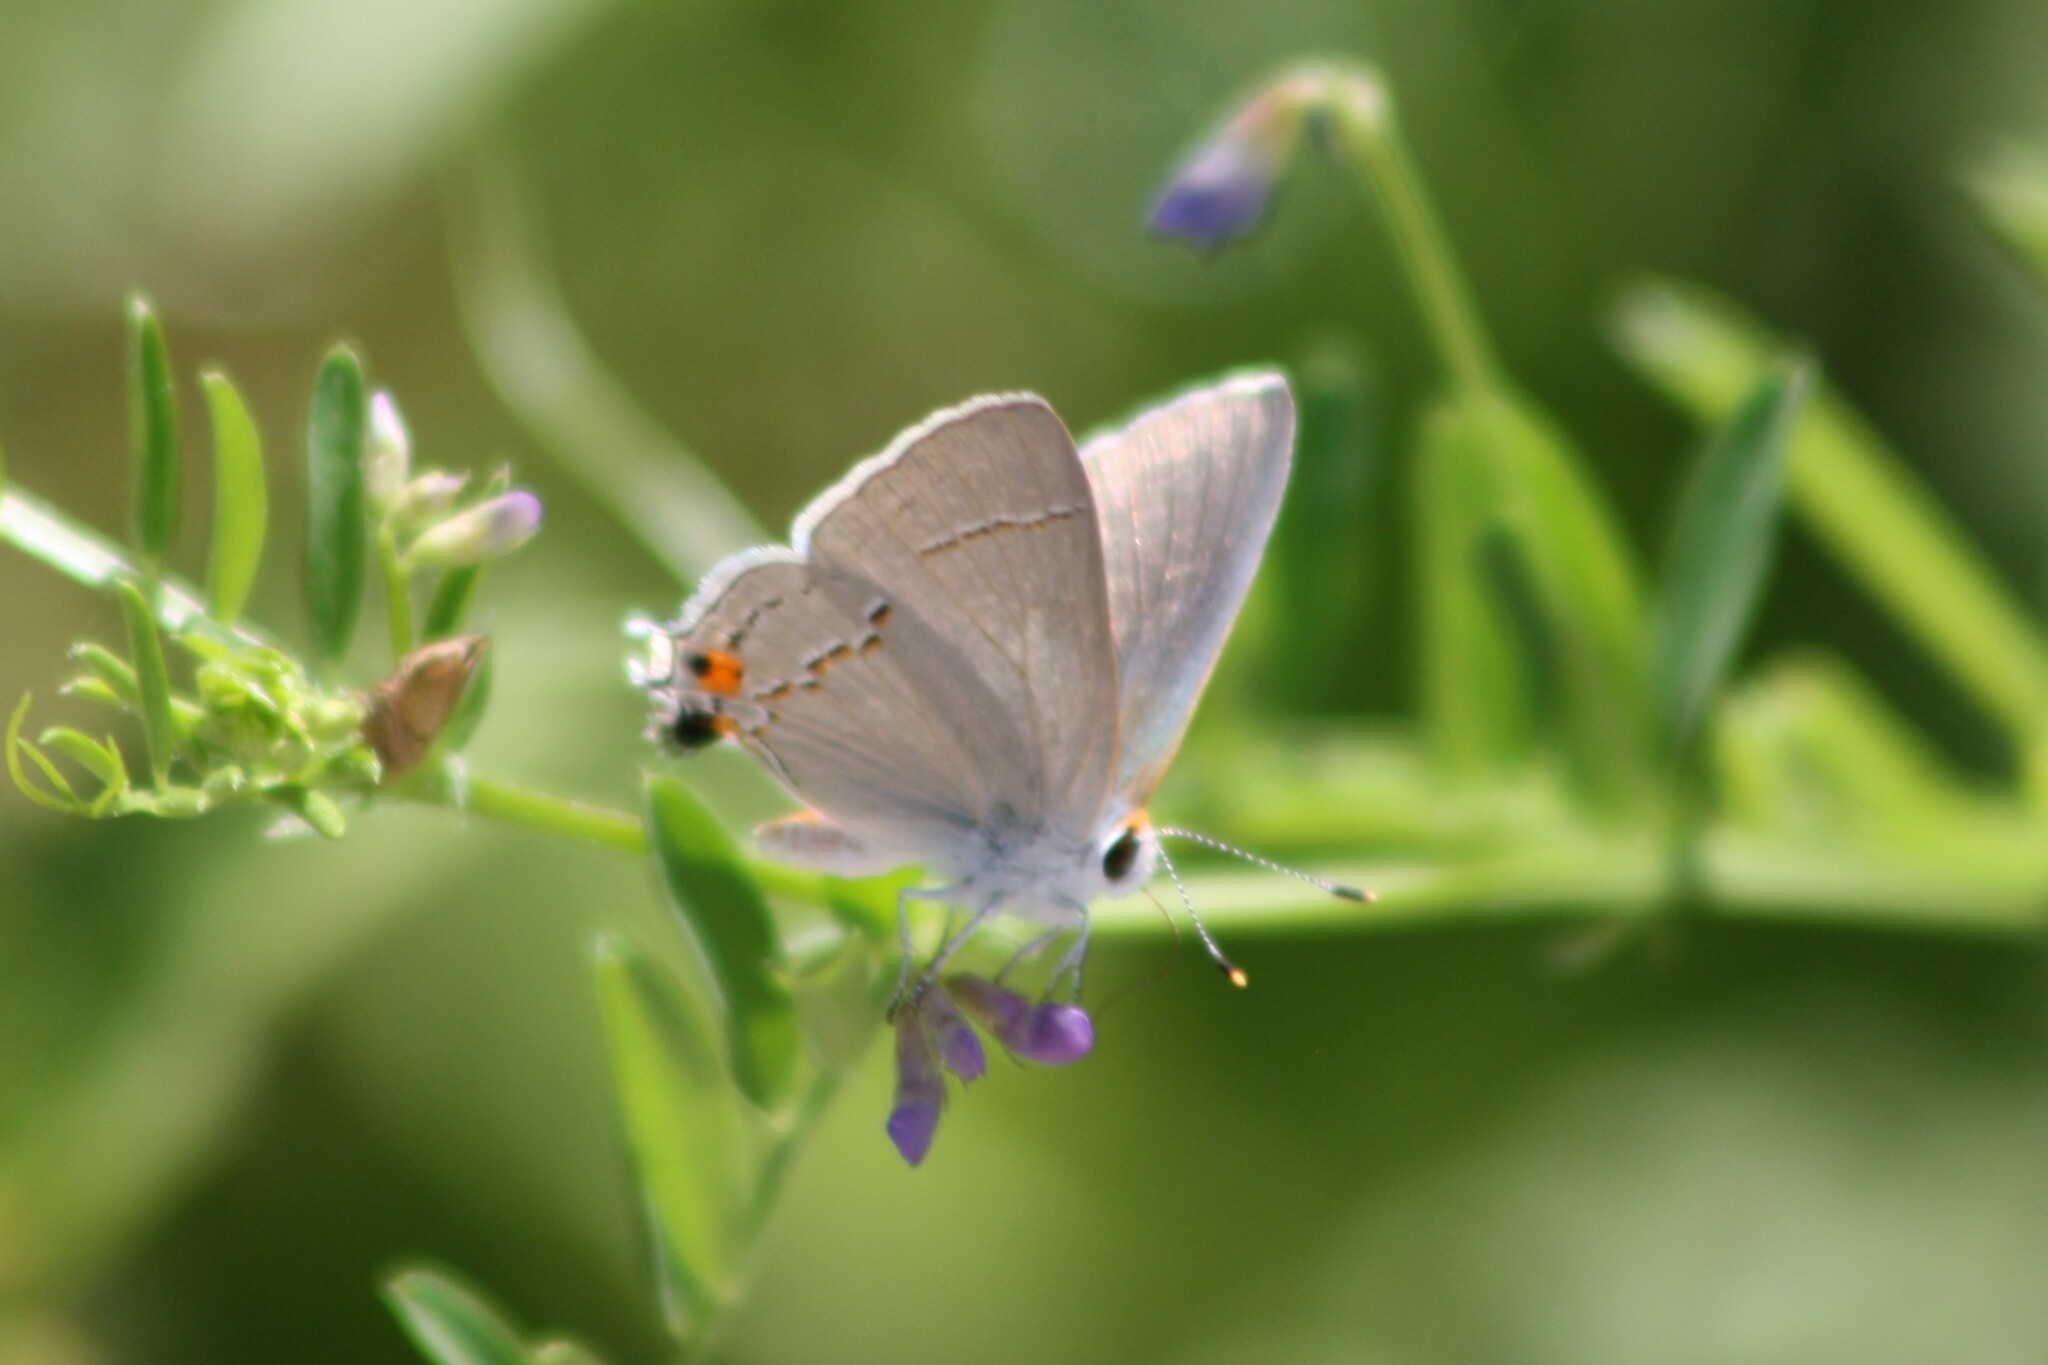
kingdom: Animalia
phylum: Arthropoda
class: Insecta
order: Lepidoptera
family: Lycaenidae
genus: Strymon
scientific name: Strymon melinus
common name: Gray hairstreak
